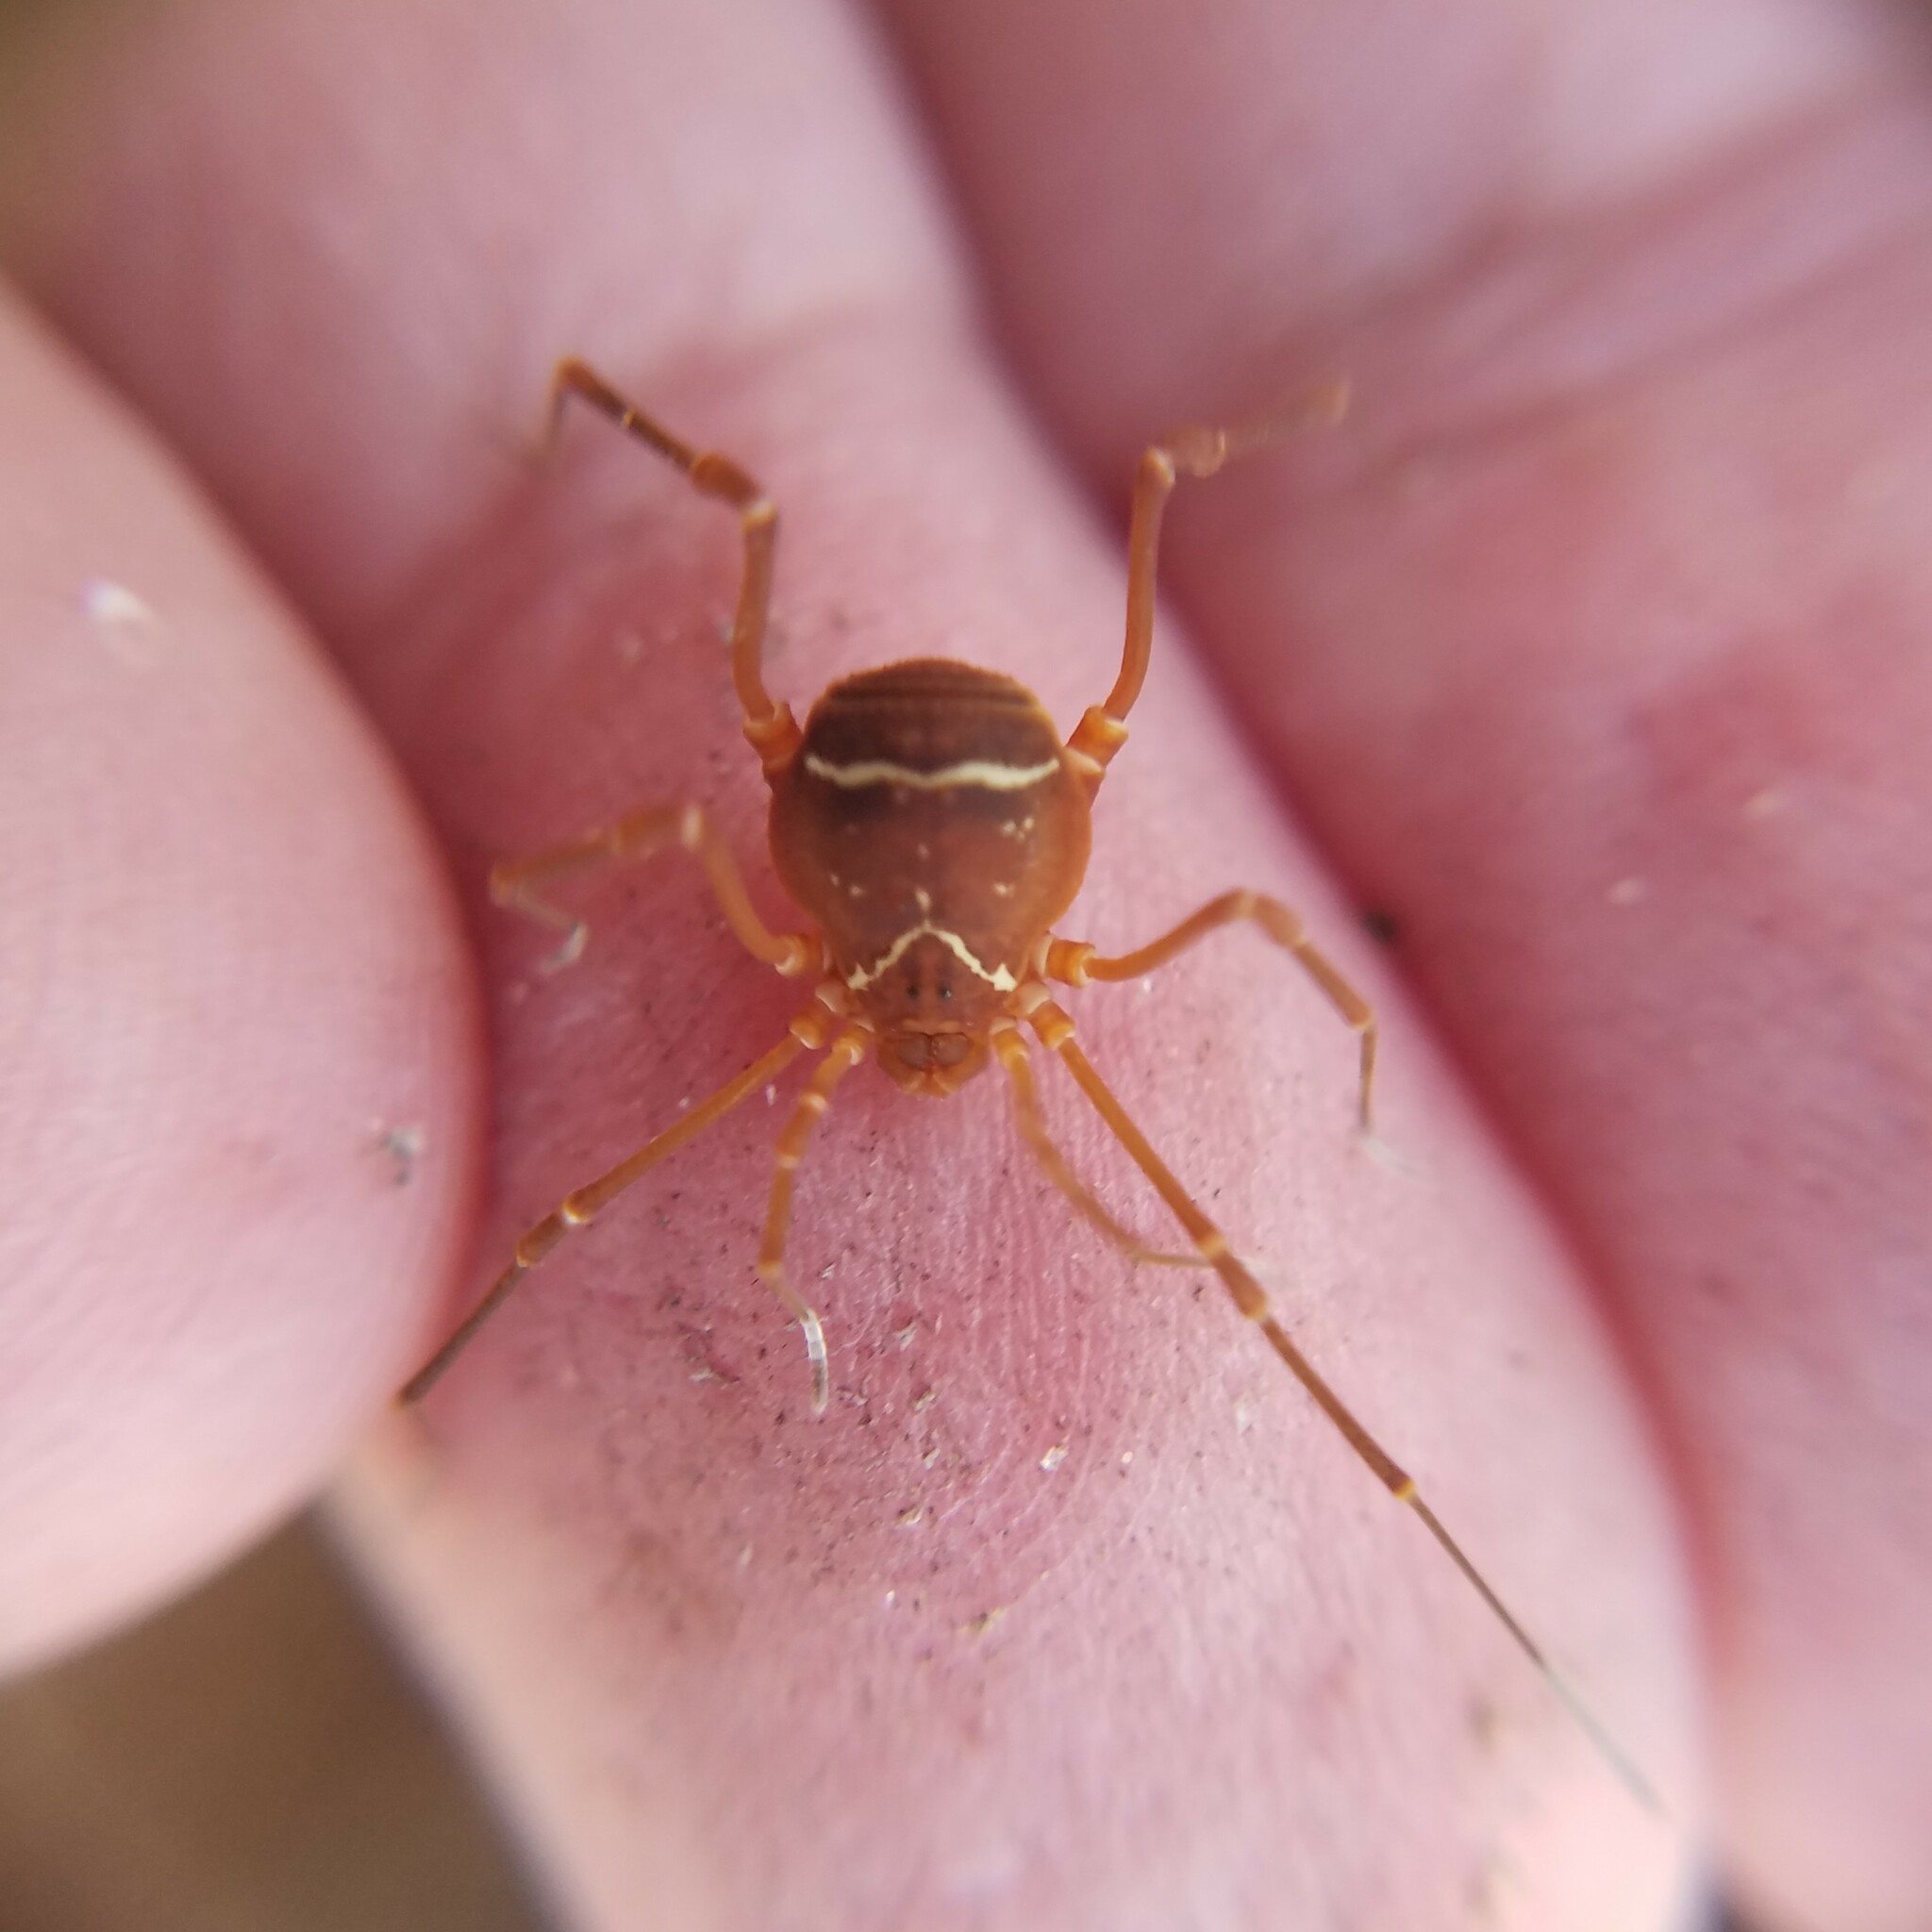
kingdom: Animalia
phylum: Arthropoda
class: Arachnida
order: Opiliones
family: Cosmetidae
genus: Libitioides
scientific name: Libitioides sayi
